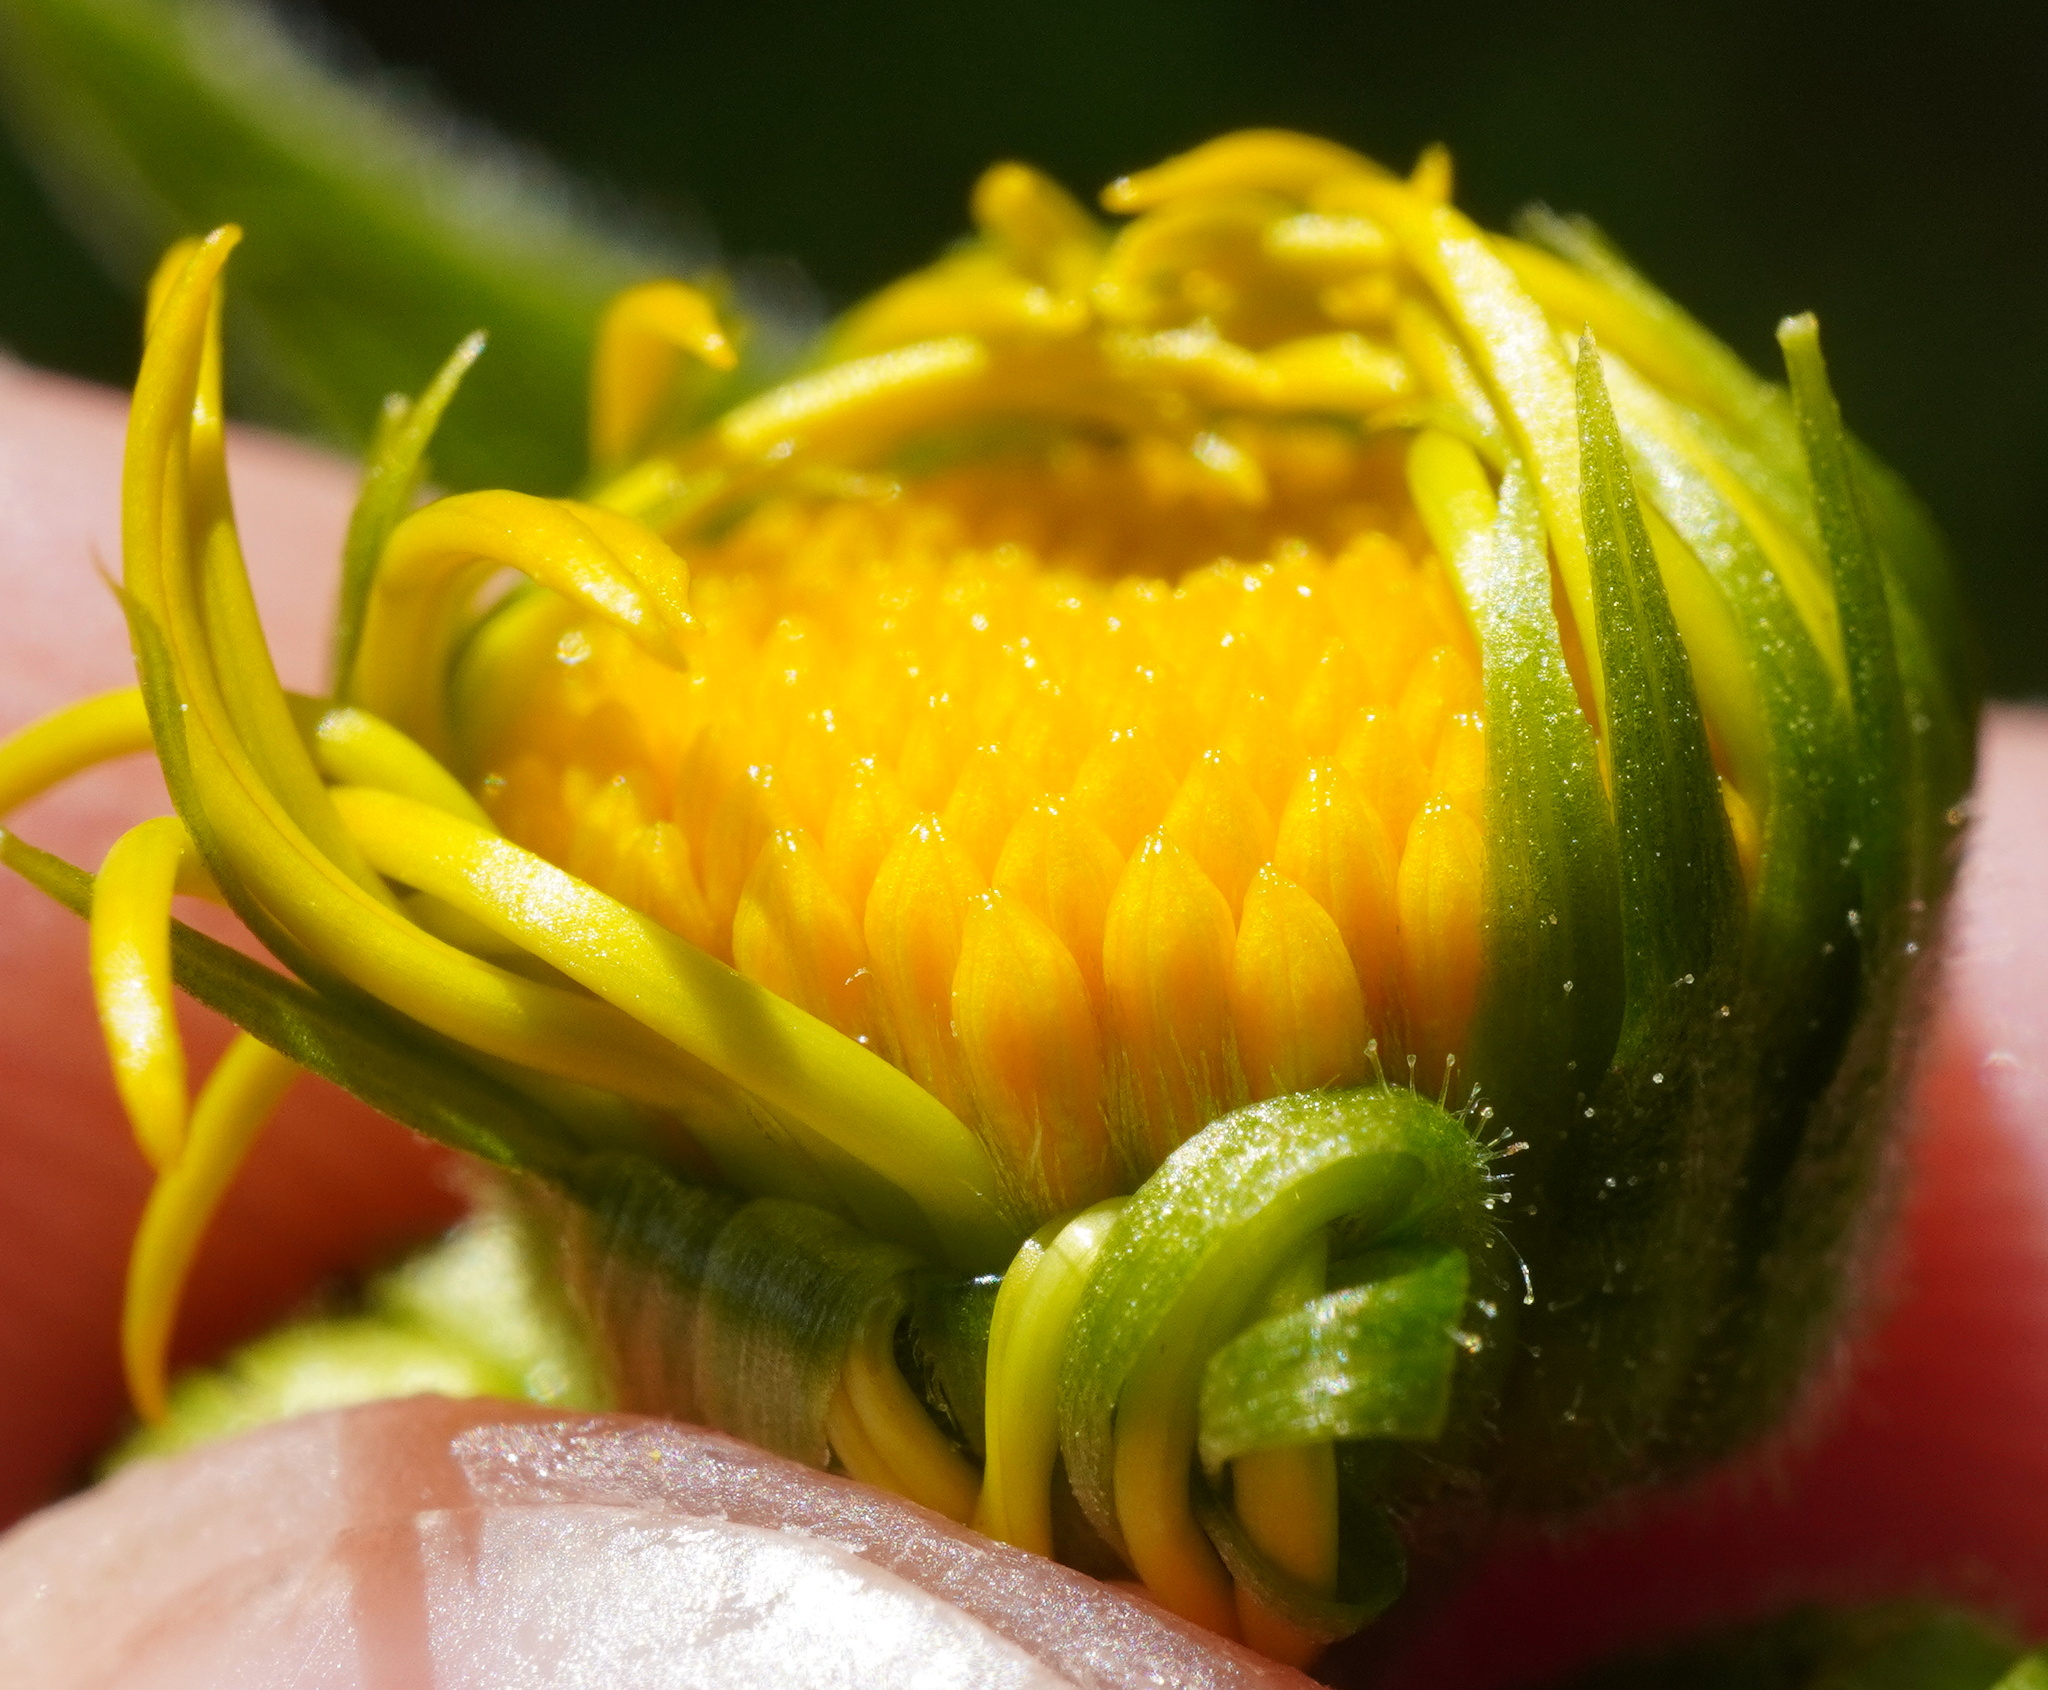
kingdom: Plantae
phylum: Tracheophyta
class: Magnoliopsida
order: Asterales
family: Asteraceae
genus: Doronicum
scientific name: Doronicum austriacum
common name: Austrian leopard's-bane
